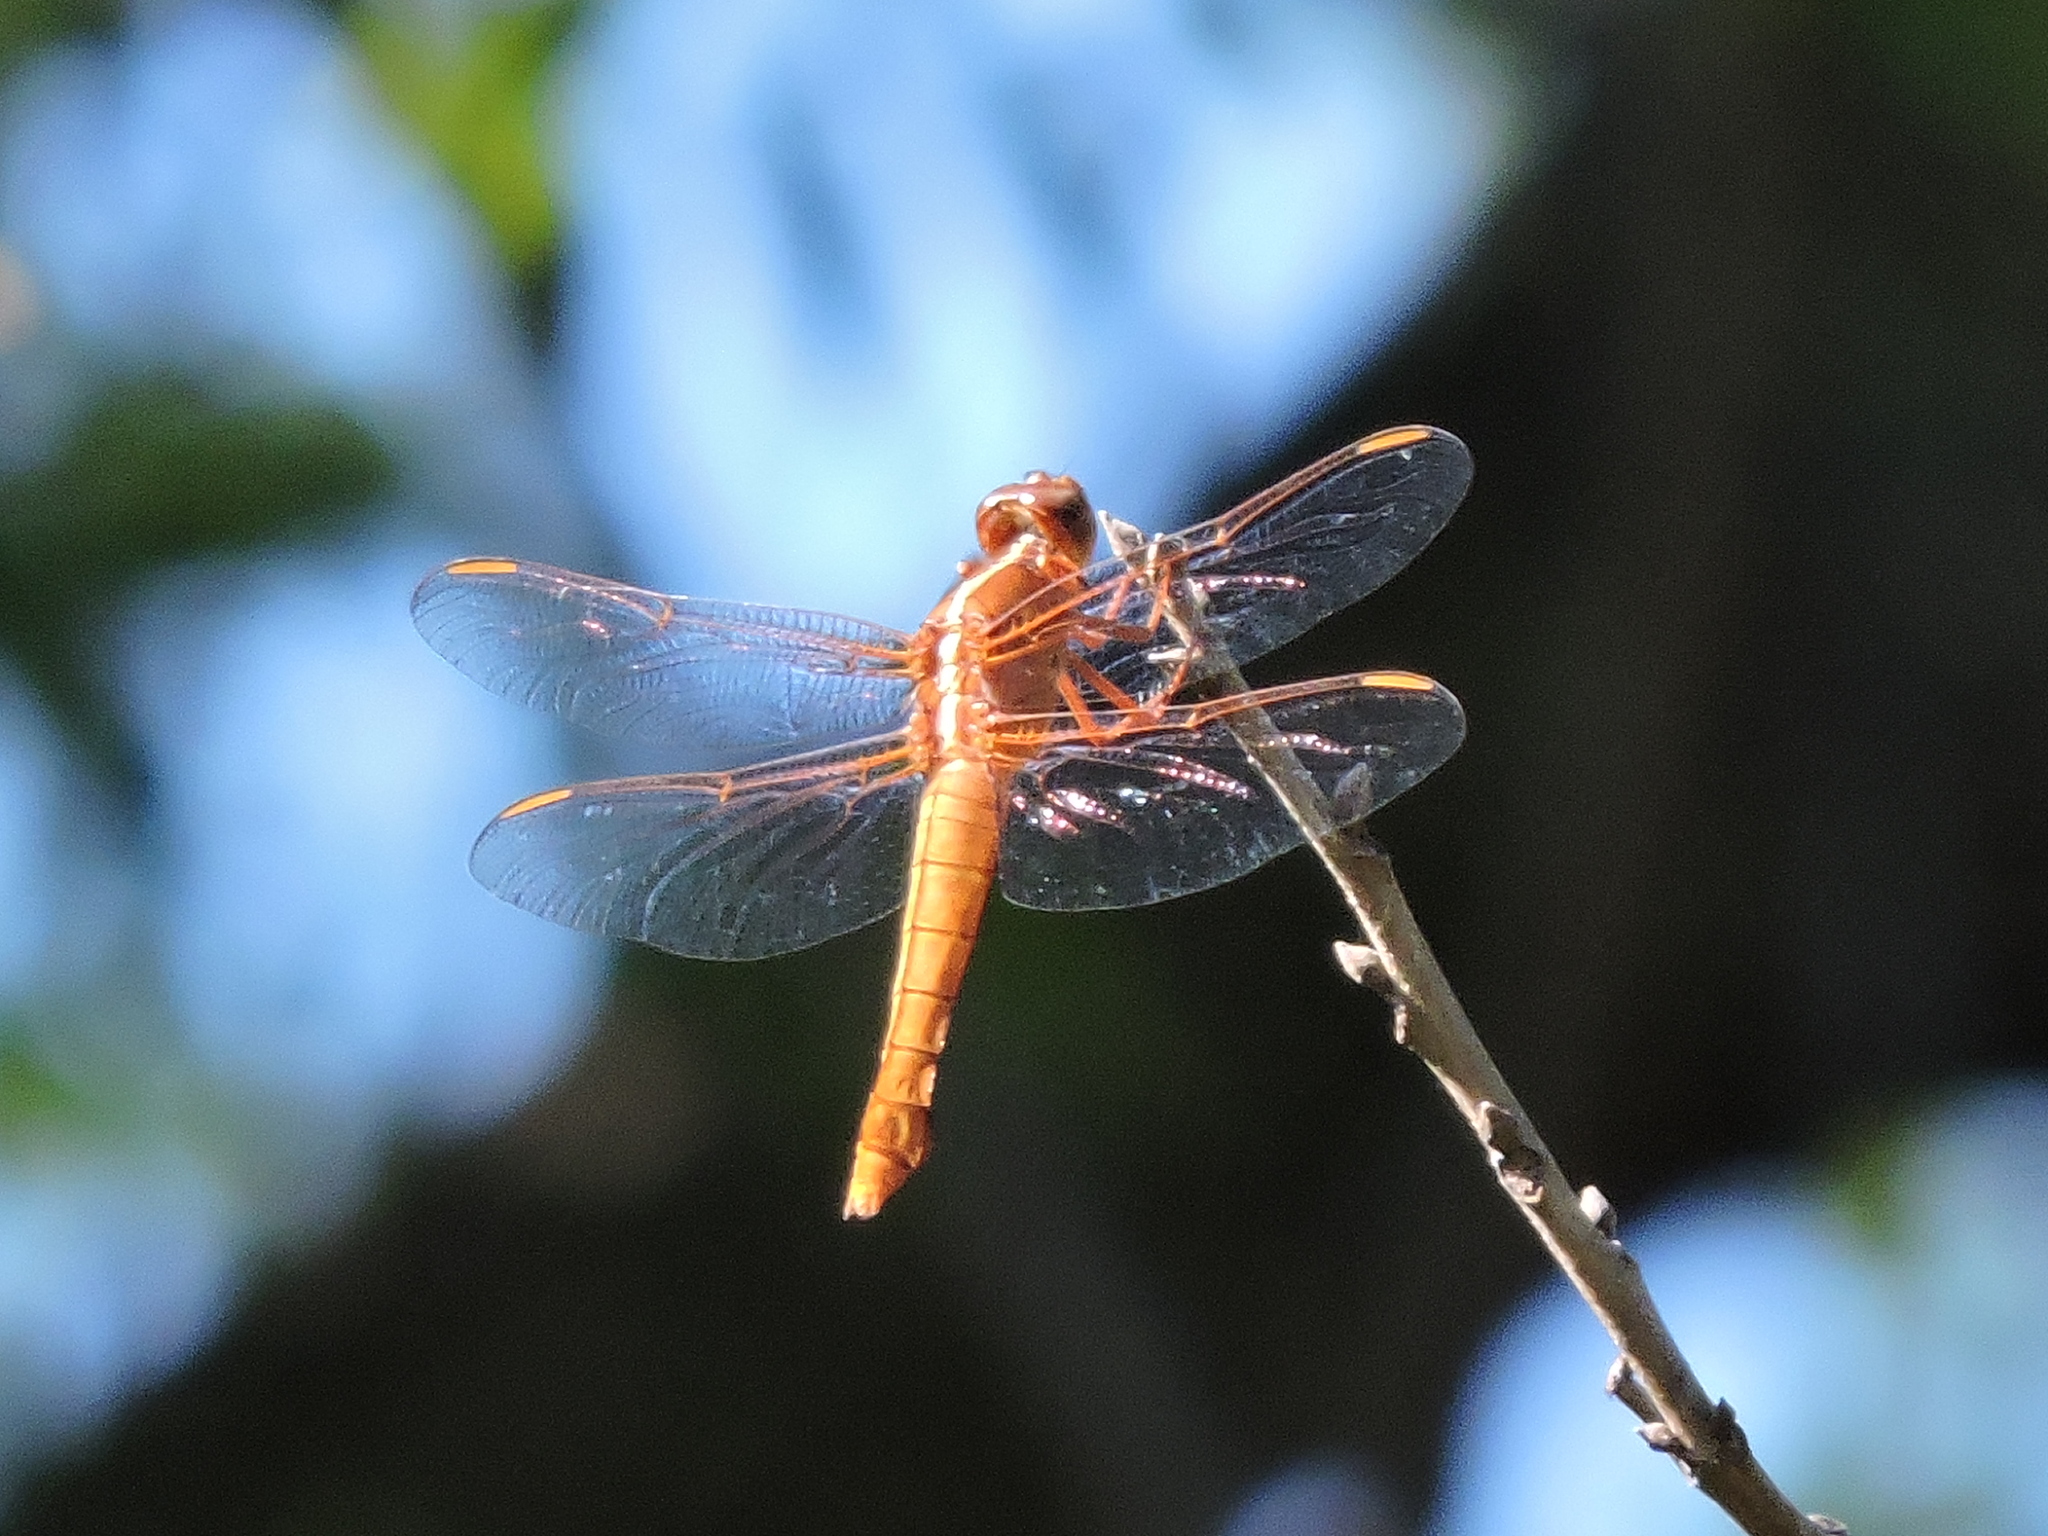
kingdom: Animalia
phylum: Arthropoda
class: Insecta
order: Odonata
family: Libellulidae
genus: Libellula
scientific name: Libellula croceipennis
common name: Neon skimmer
